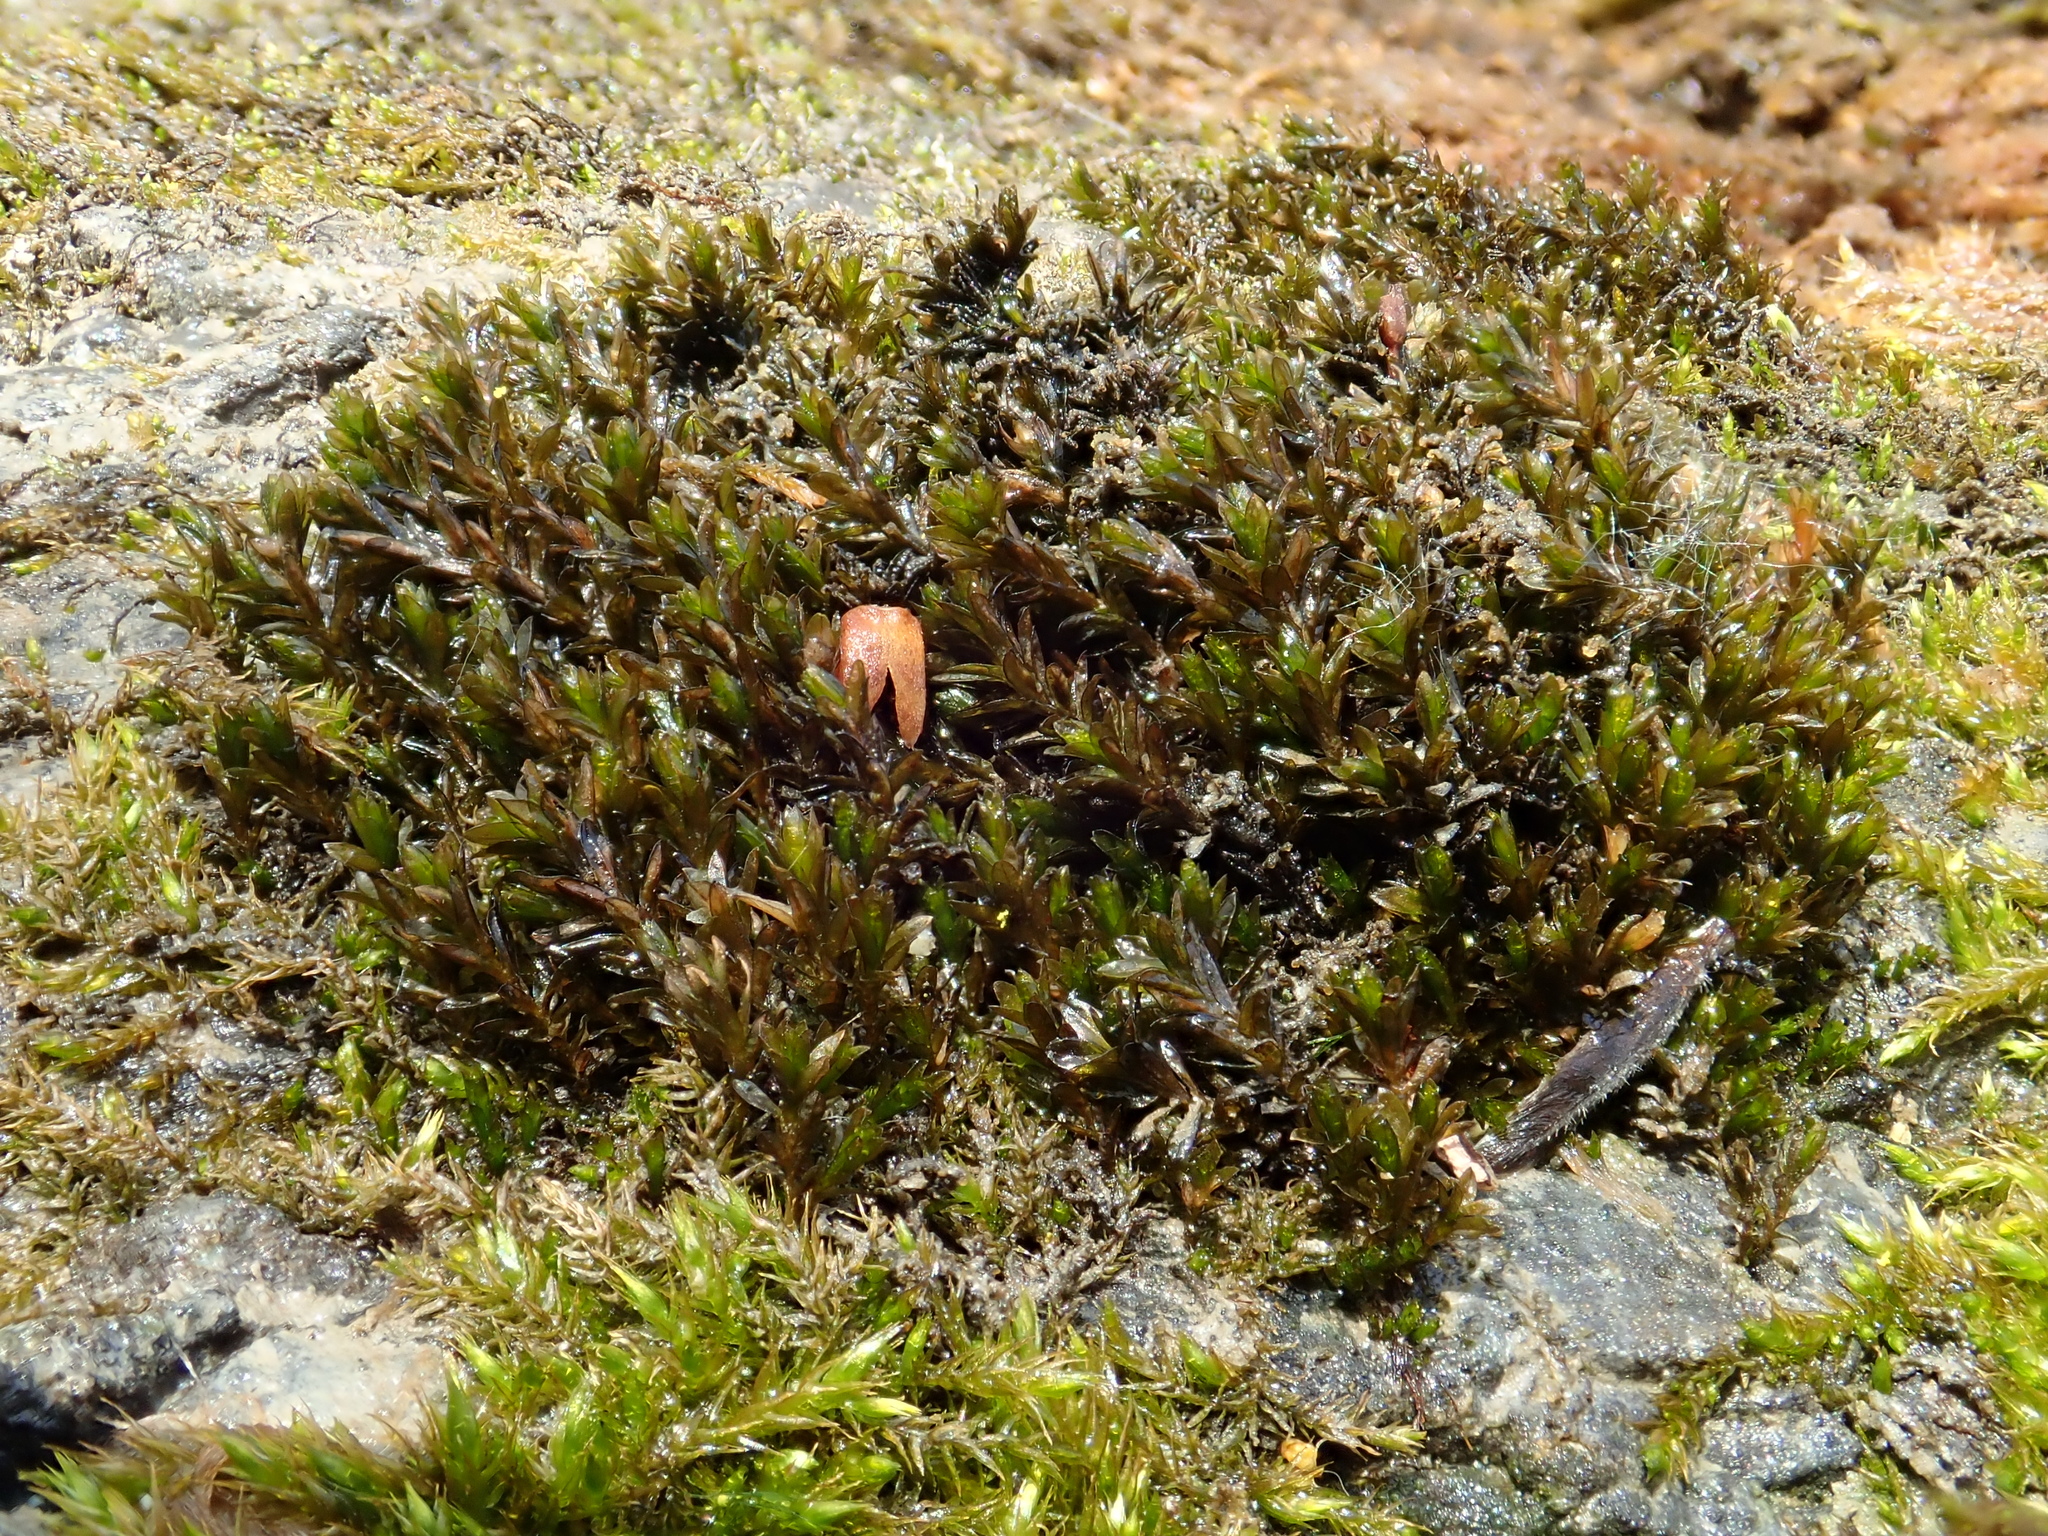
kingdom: Plantae
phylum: Bryophyta
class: Bryopsida
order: Pottiales
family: Pottiaceae
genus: Cinclidotus
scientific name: Cinclidotus riparius
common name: Fountain lattice-moss
